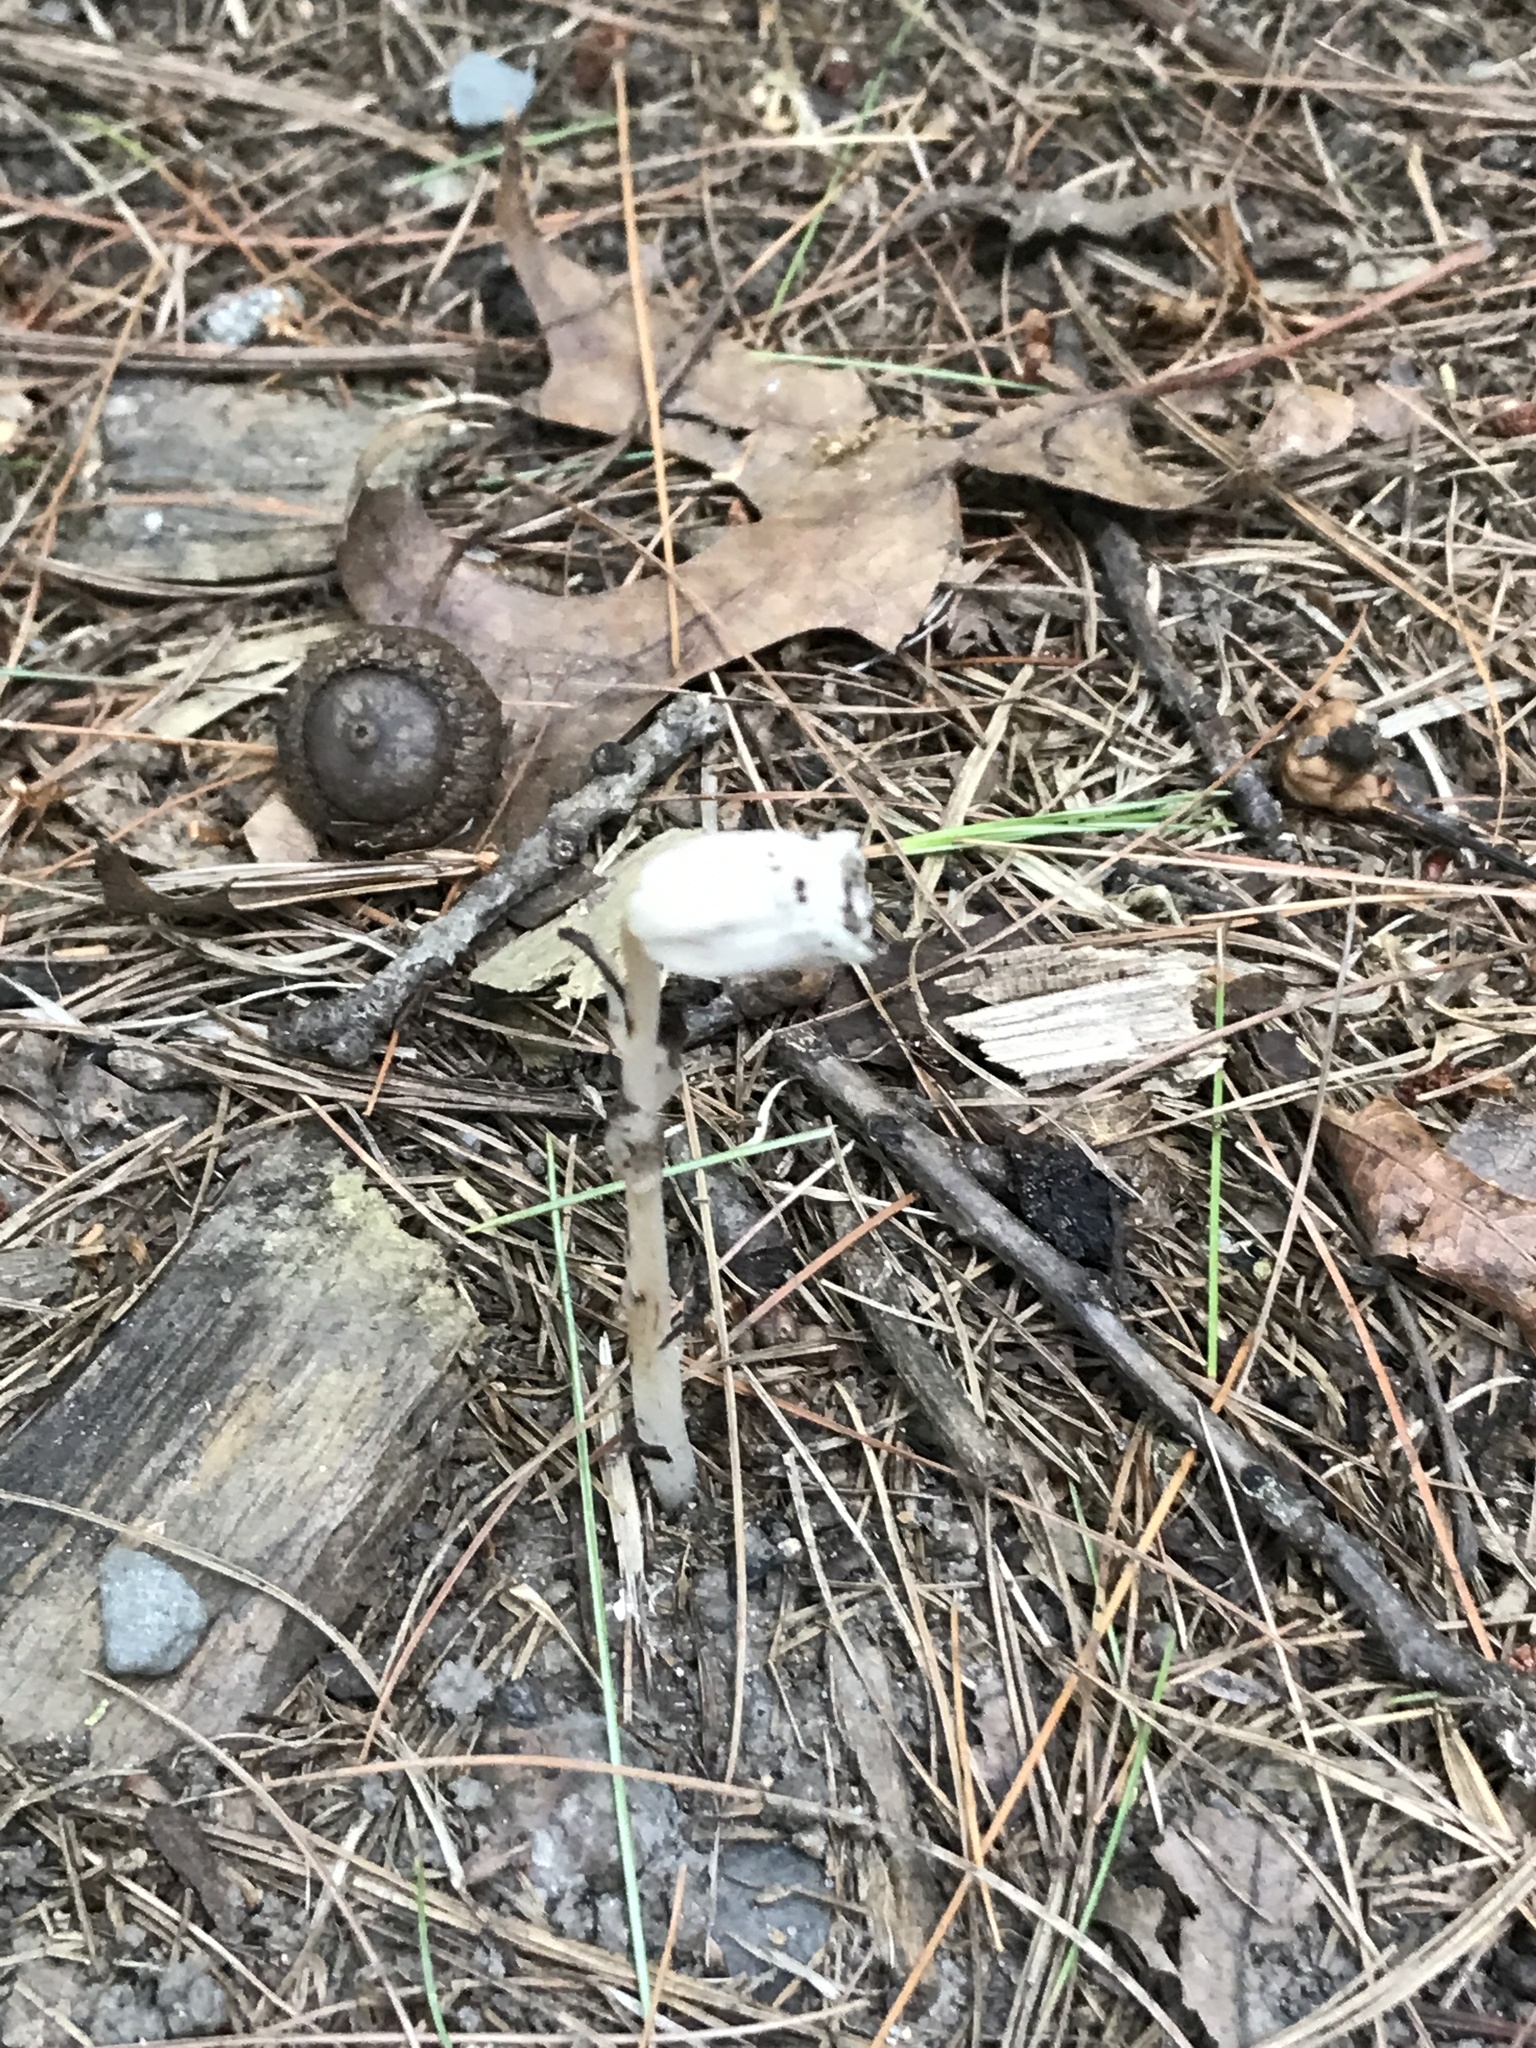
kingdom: Plantae
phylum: Tracheophyta
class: Magnoliopsida
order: Ericales
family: Ericaceae
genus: Monotropa
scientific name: Monotropa uniflora
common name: Convulsion root
